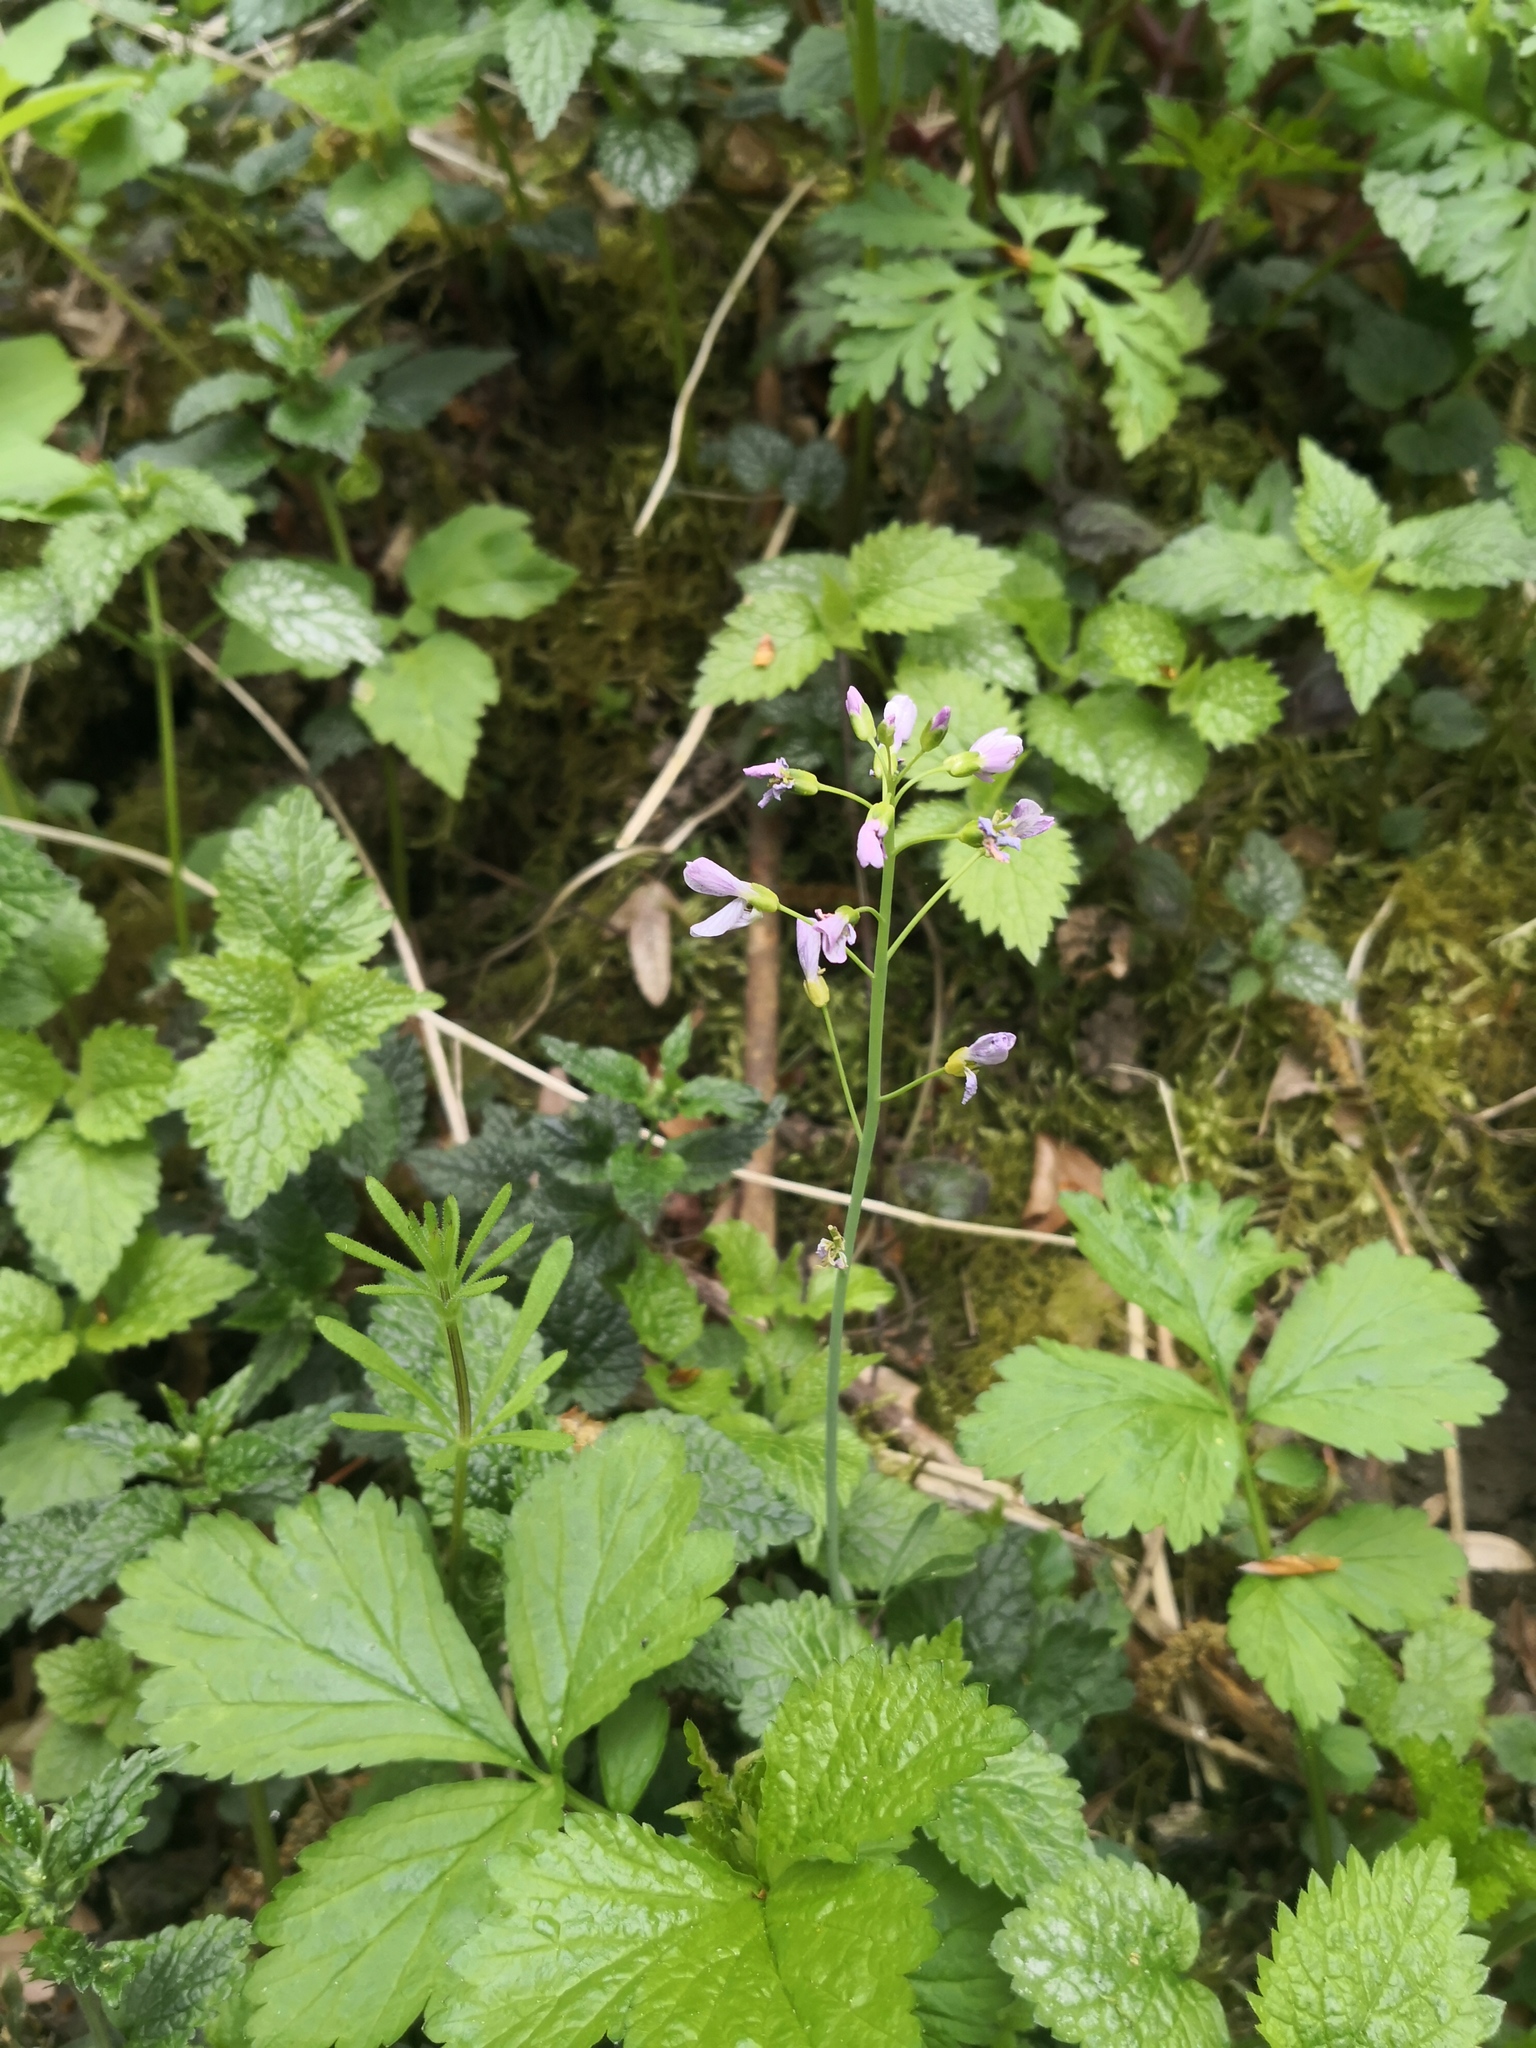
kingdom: Plantae
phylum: Tracheophyta
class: Magnoliopsida
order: Brassicales
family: Brassicaceae
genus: Cardamine
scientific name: Cardamine pratensis
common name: Cuckoo flower
